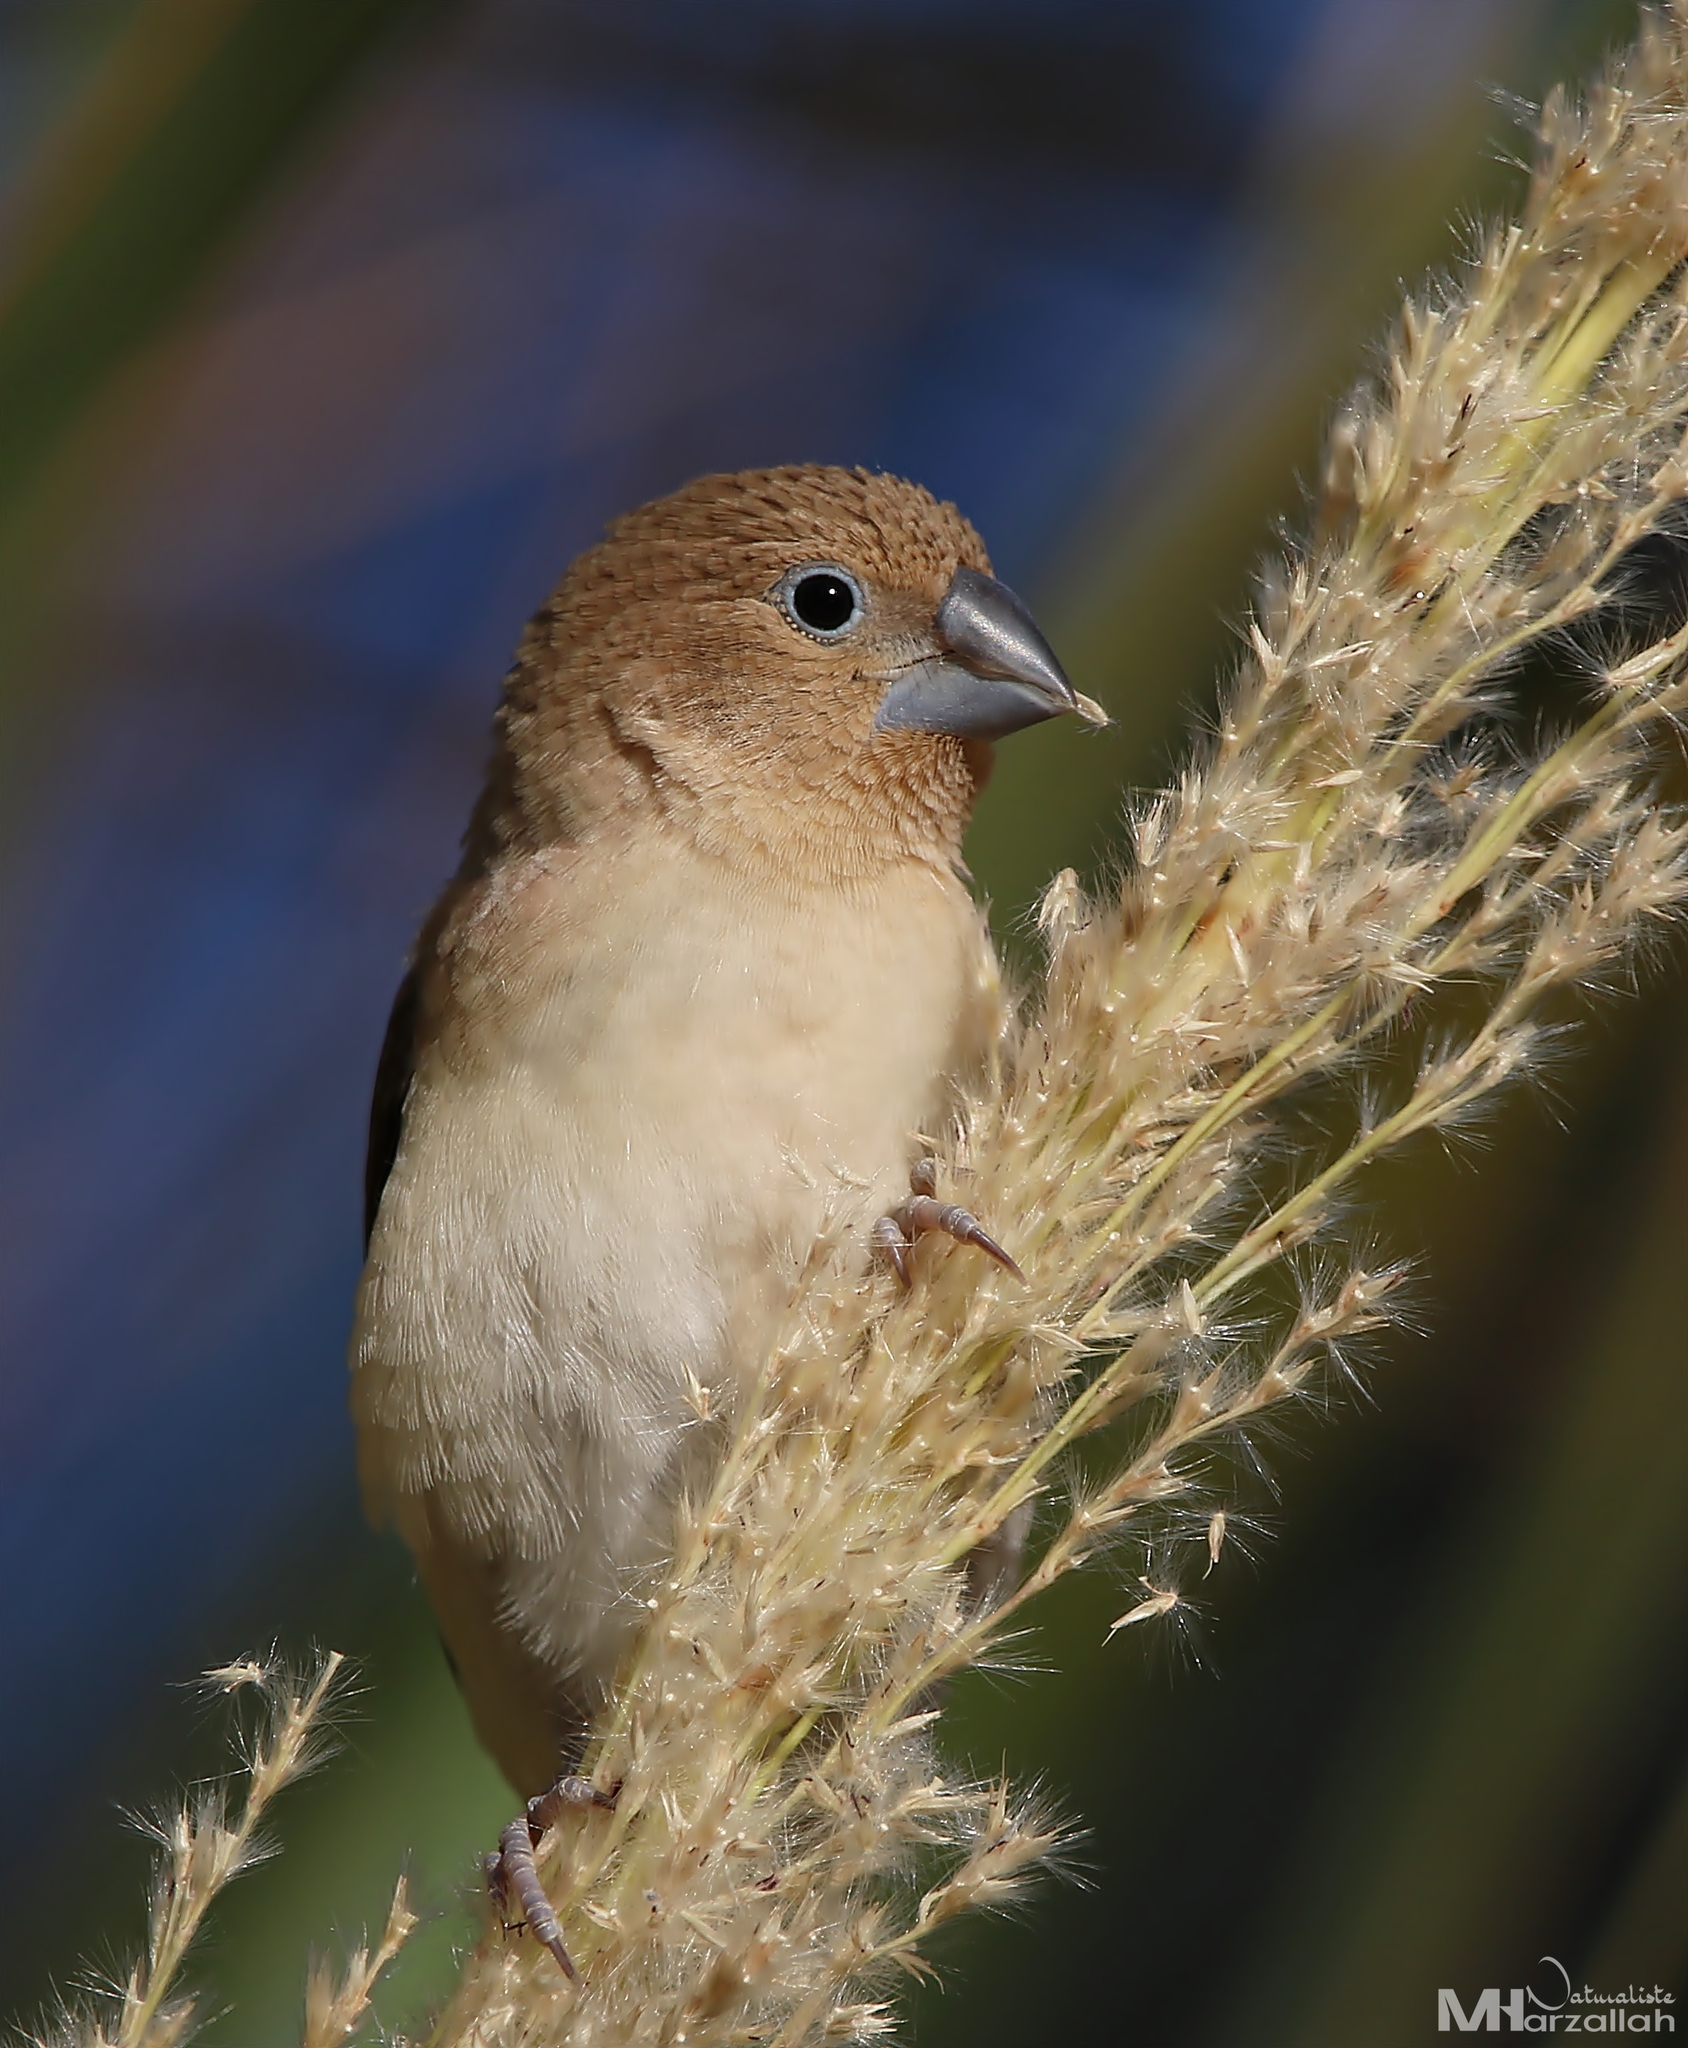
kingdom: Animalia
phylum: Chordata
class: Aves
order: Passeriformes
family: Estrildidae
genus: Euodice
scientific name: Euodice cantans
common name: African silverbill
